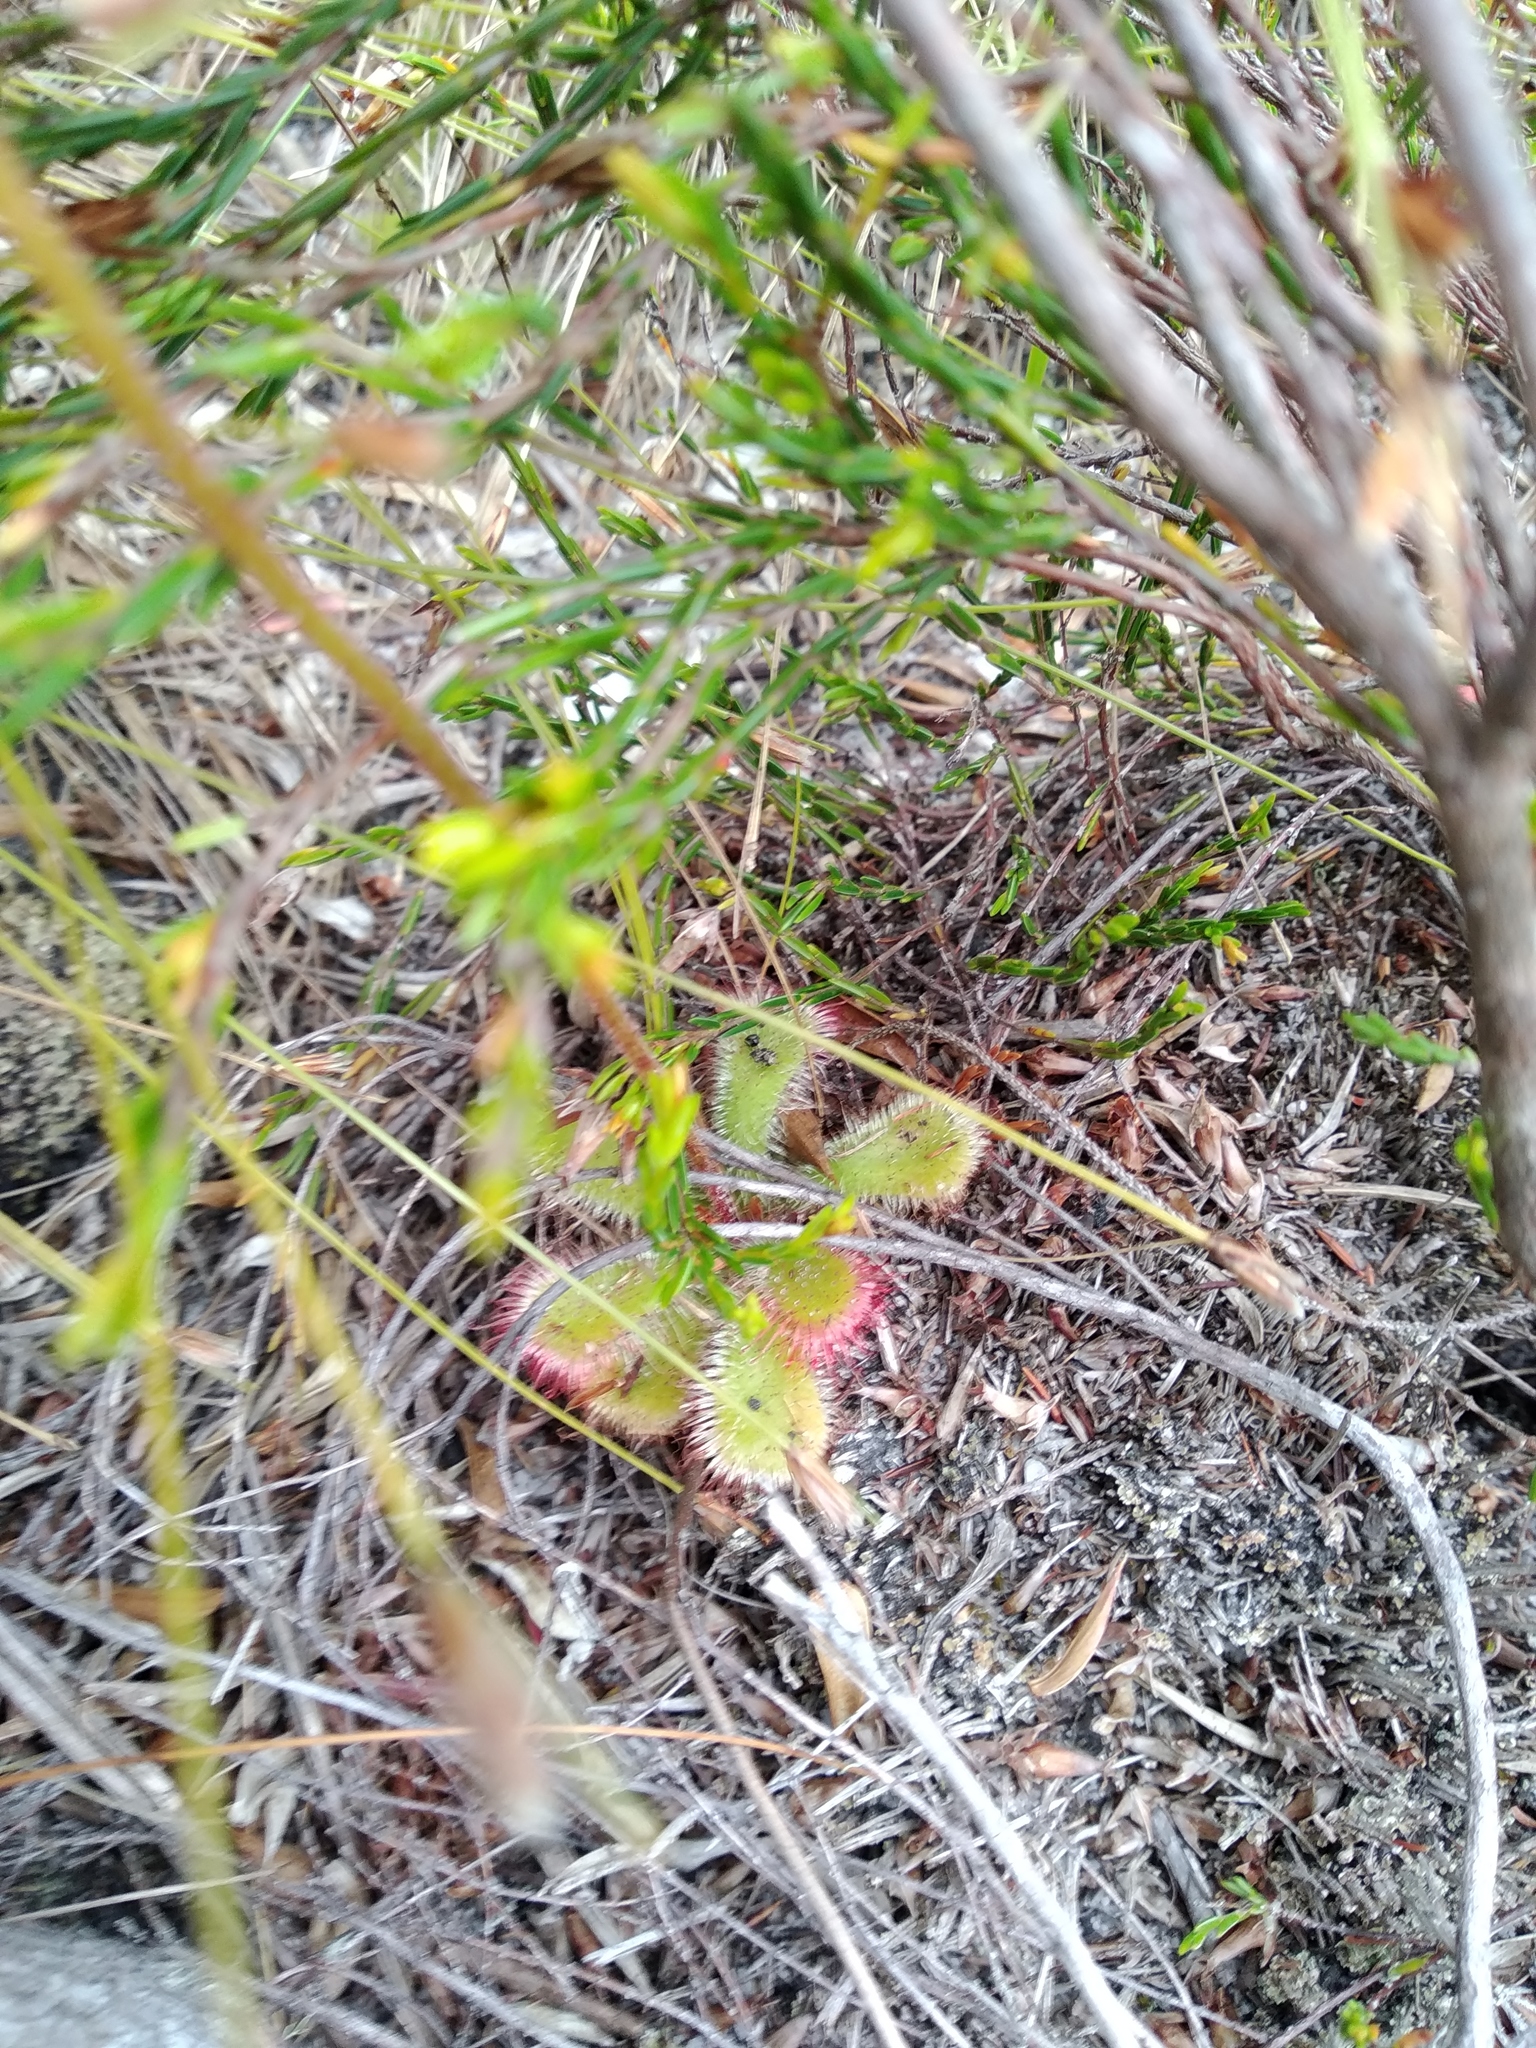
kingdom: Plantae
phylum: Tracheophyta
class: Magnoliopsida
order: Caryophyllales
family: Droseraceae
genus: Drosera
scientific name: Drosera cuneifolia
